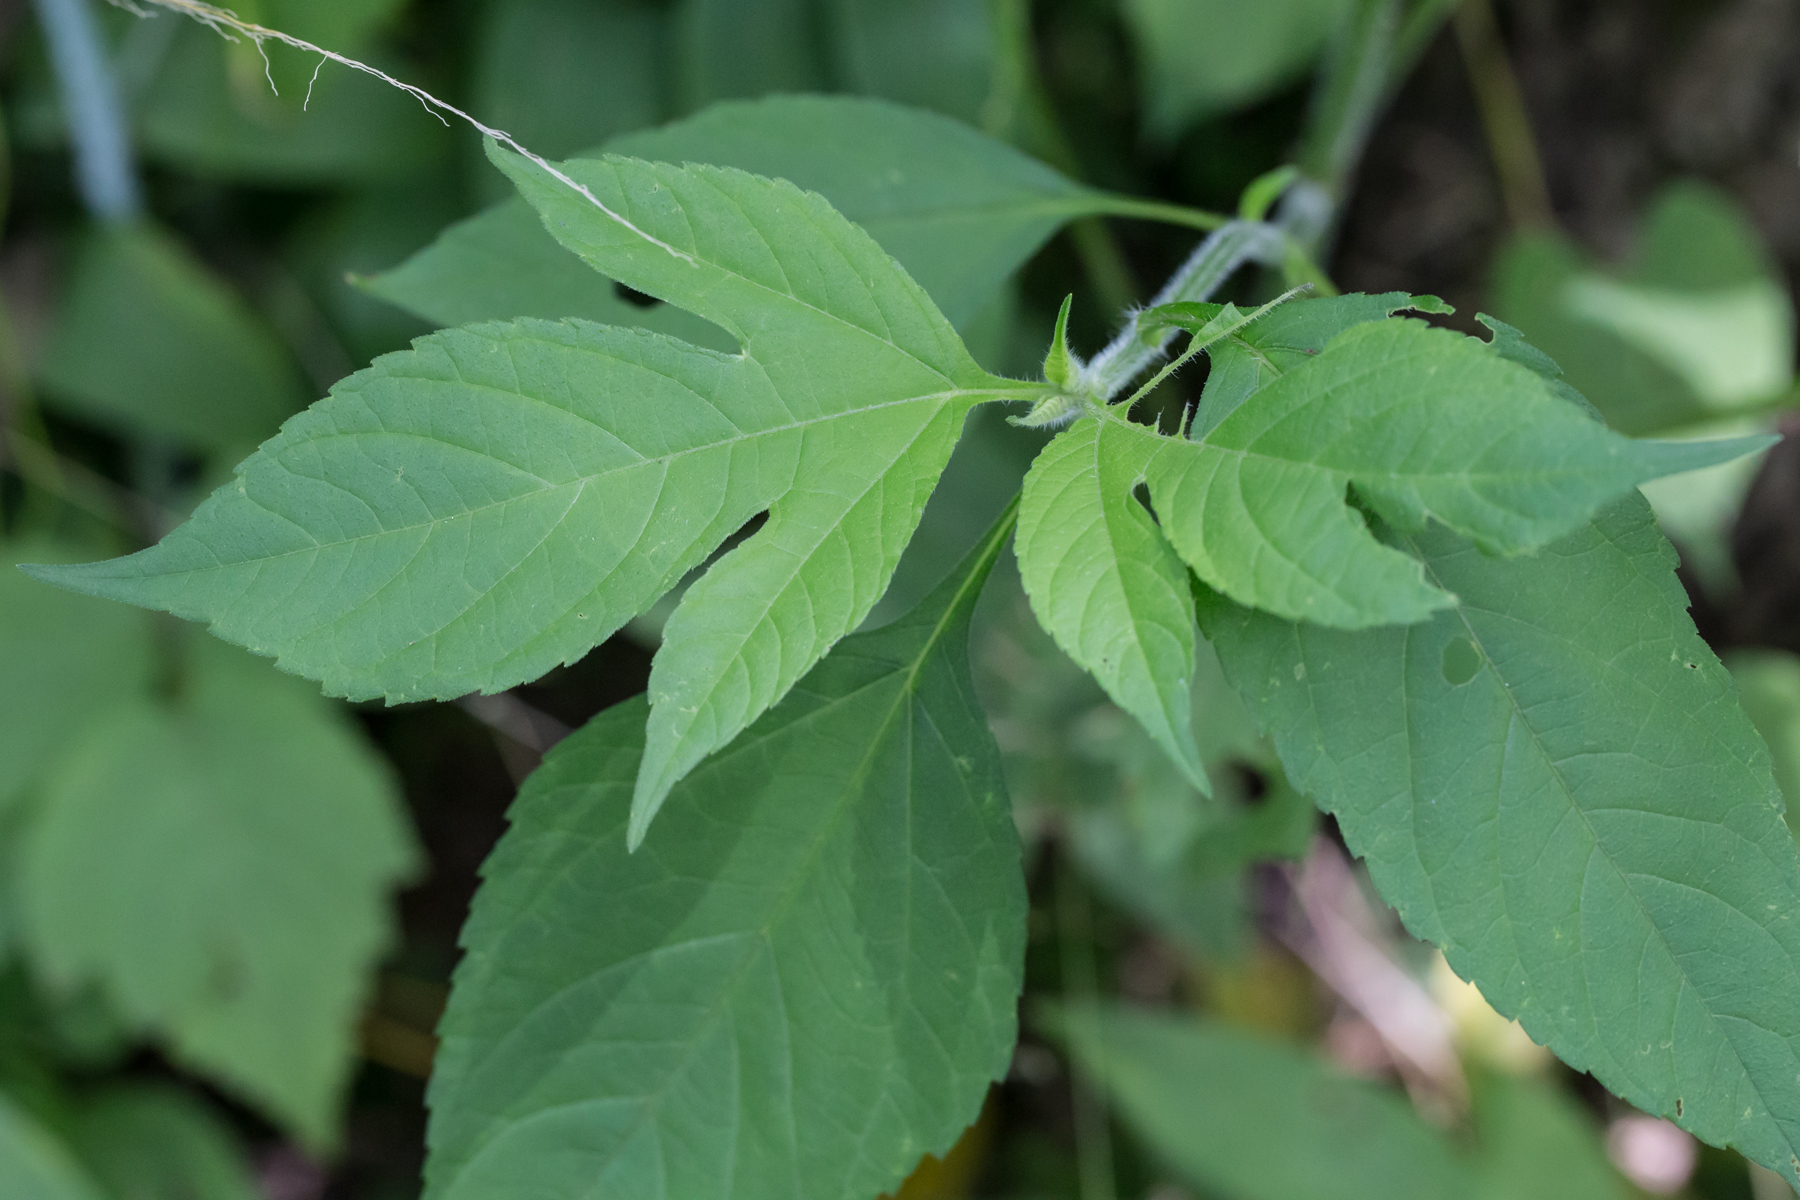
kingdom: Plantae
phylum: Tracheophyta
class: Magnoliopsida
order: Asterales
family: Asteraceae
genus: Ambrosia
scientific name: Ambrosia trifida
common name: Giant ragweed
